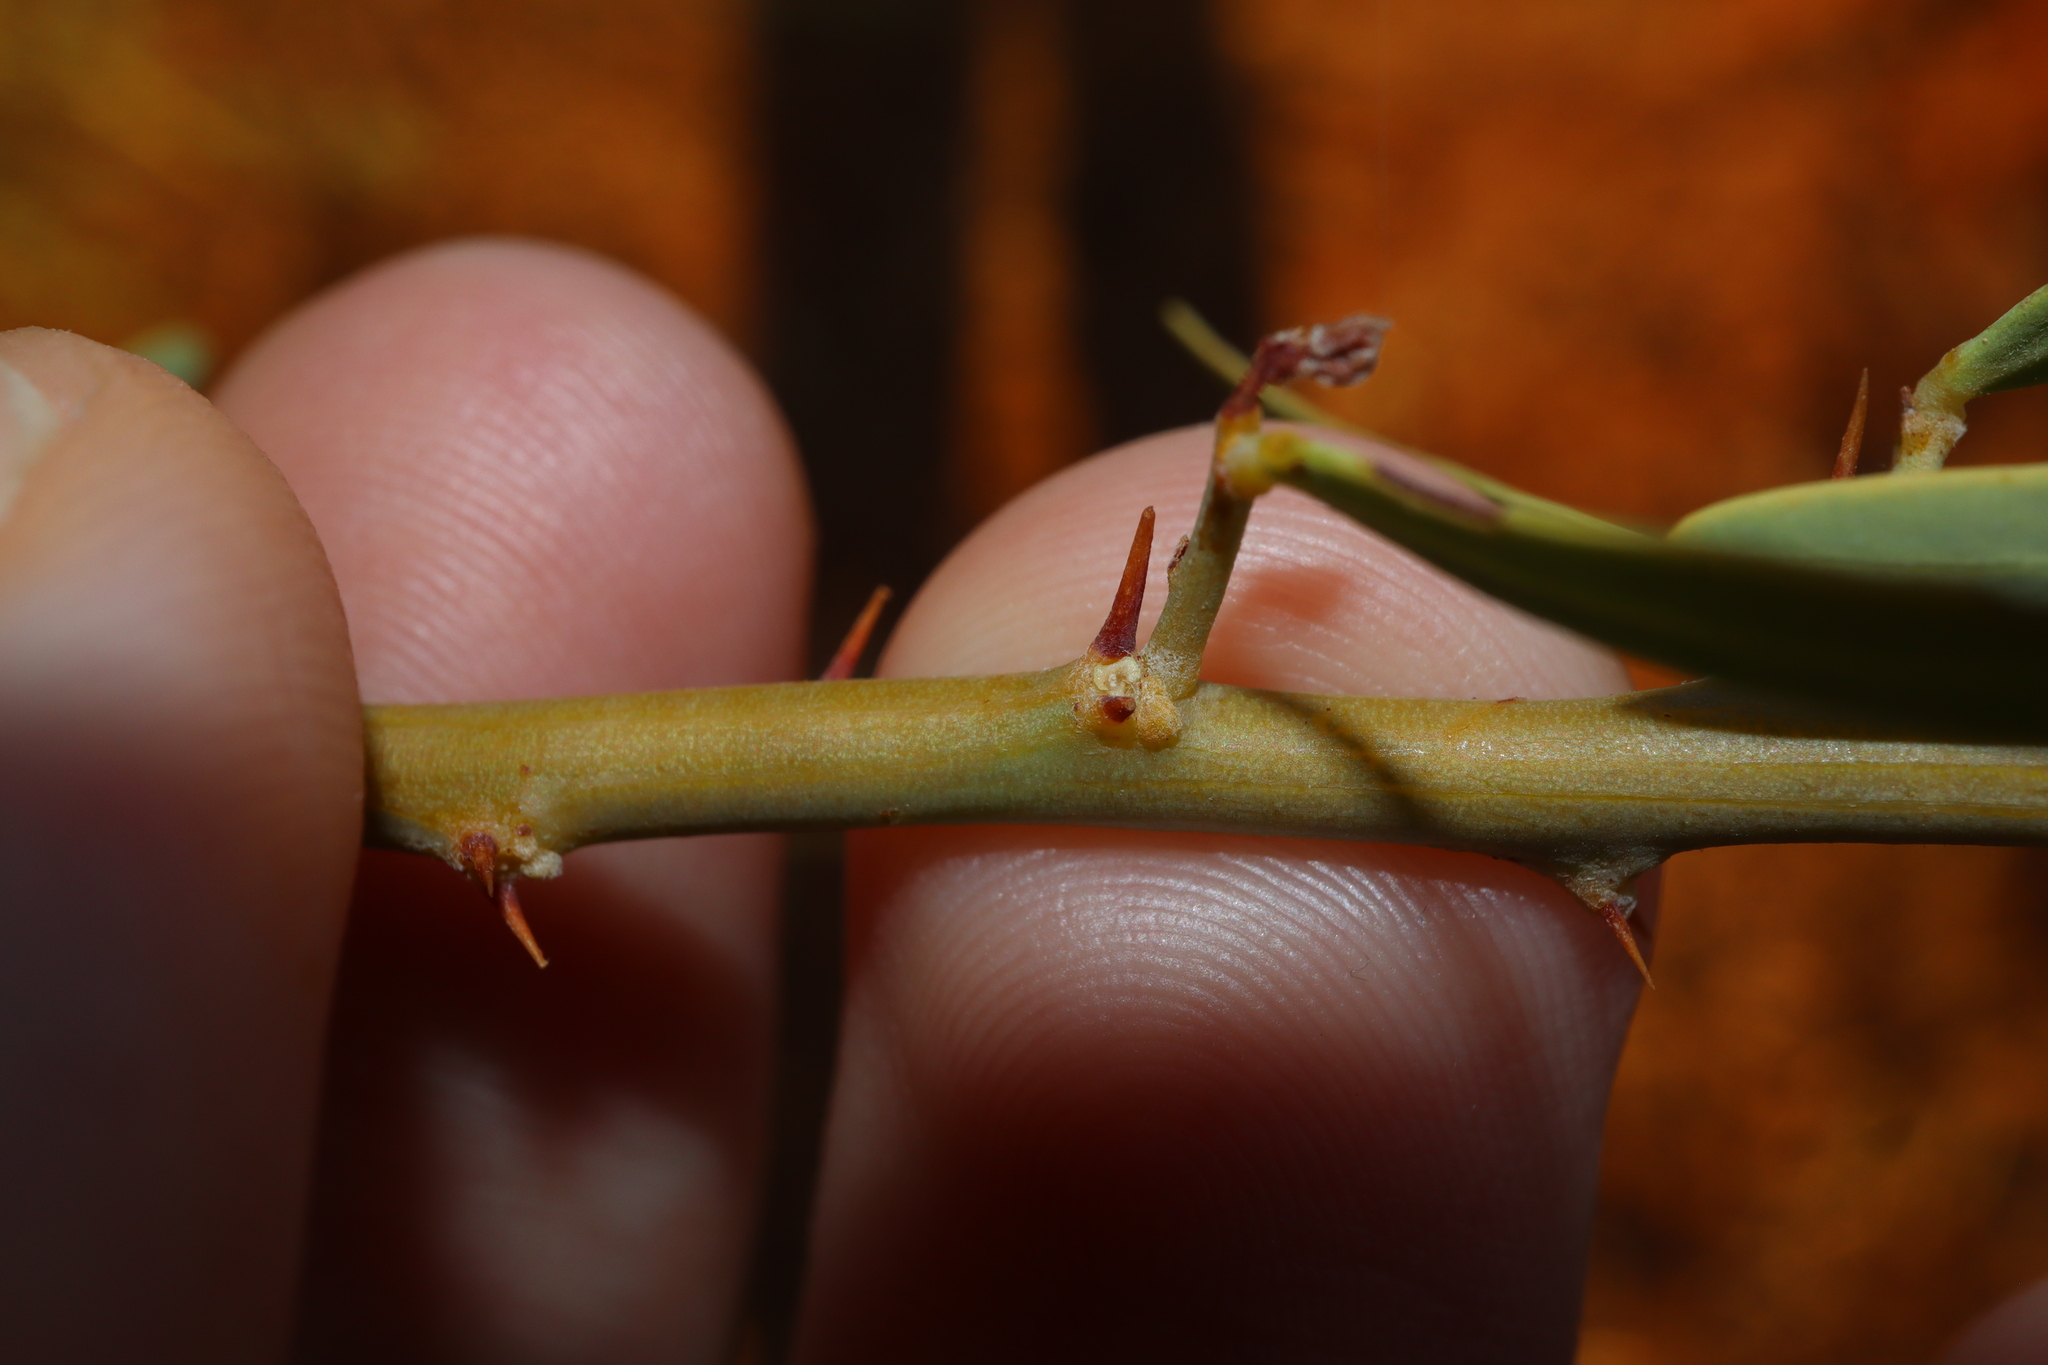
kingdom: Plantae
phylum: Tracheophyta
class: Magnoliopsida
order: Fabales
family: Fabaceae
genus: Acacia
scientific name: Acacia victoriae
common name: Bramble wattle
